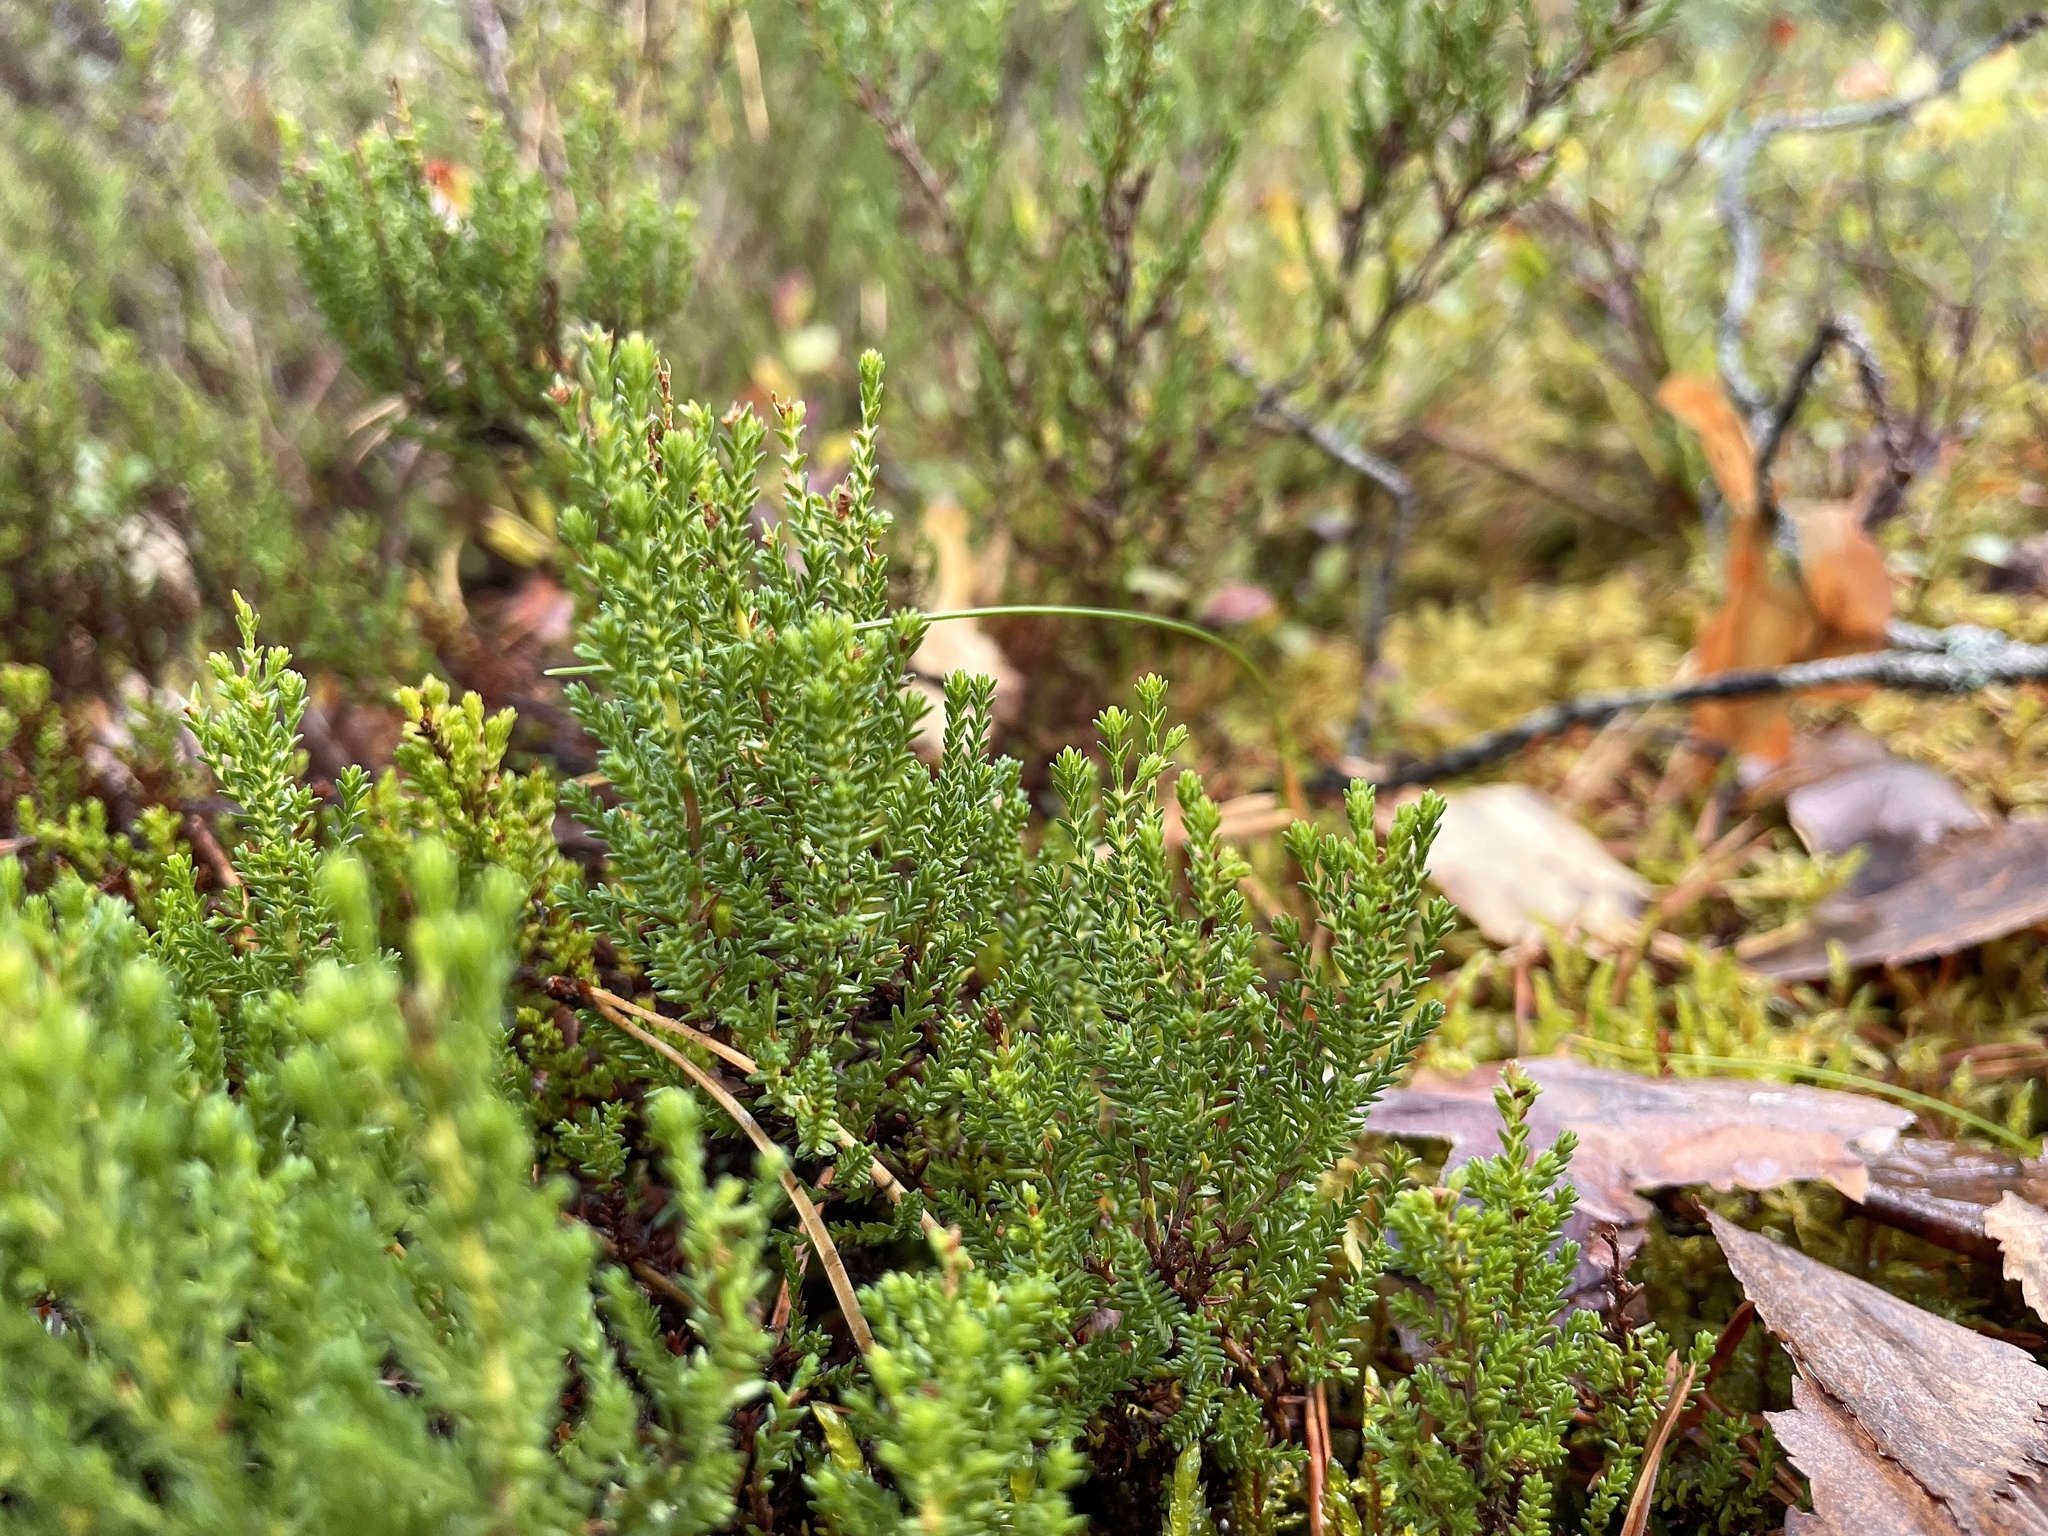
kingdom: Plantae
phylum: Tracheophyta
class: Magnoliopsida
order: Ericales
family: Ericaceae
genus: Calluna
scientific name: Calluna vulgaris
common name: Heather
